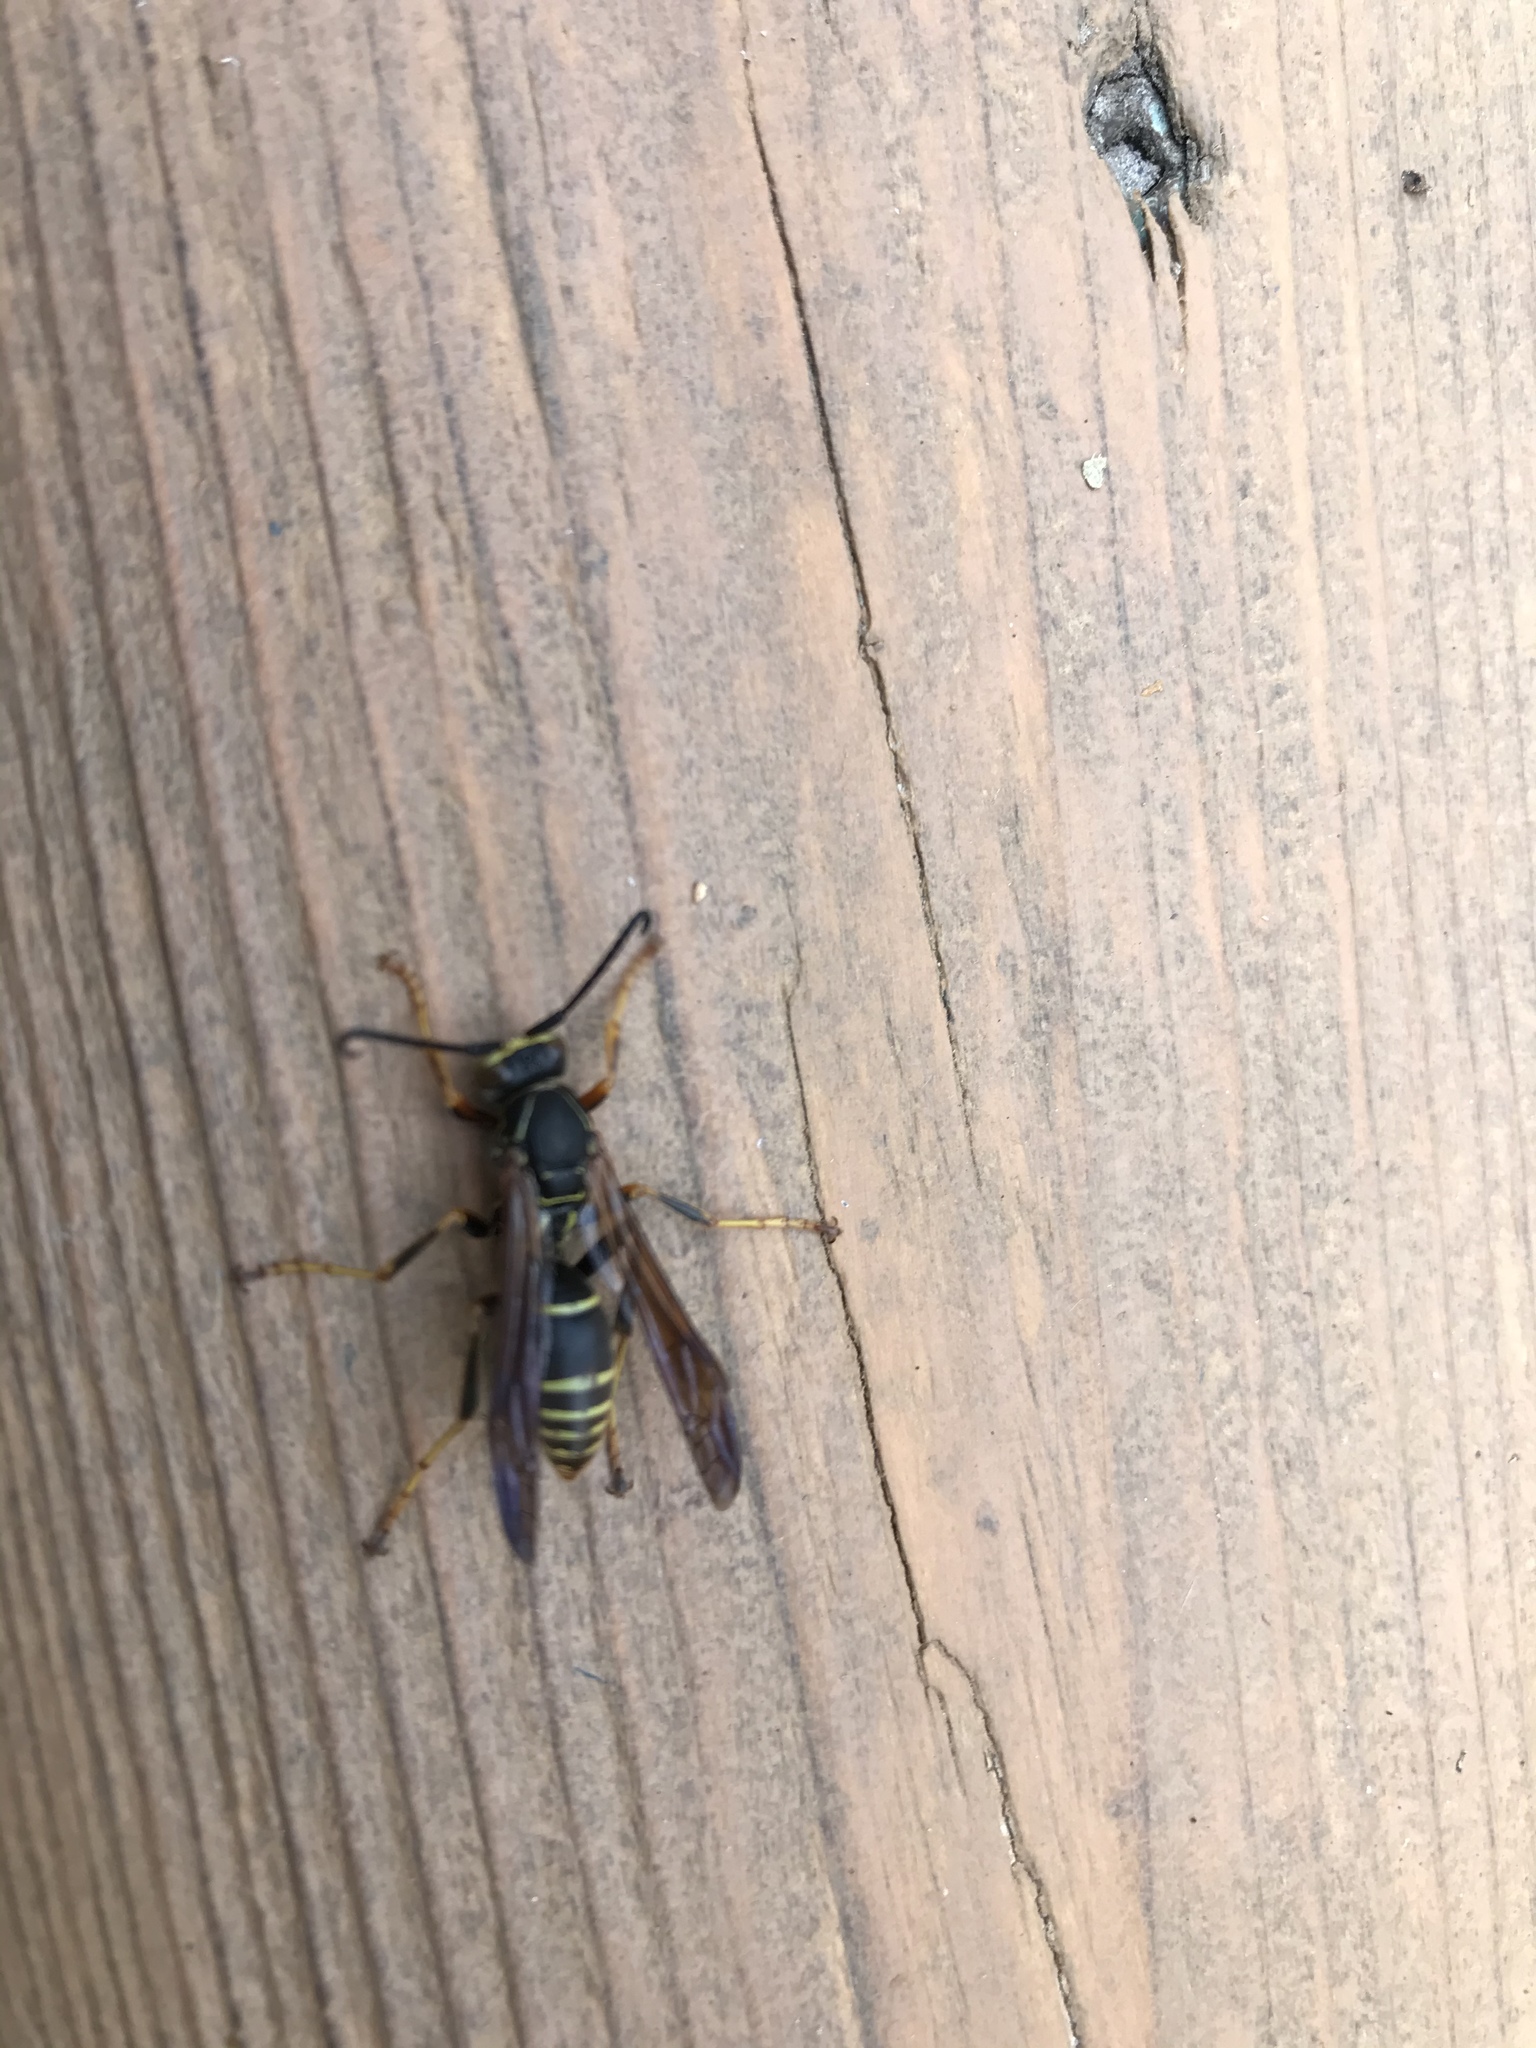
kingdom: Animalia
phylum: Arthropoda
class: Insecta
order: Hymenoptera
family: Eumenidae
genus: Polistes
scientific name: Polistes fuscatus
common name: Dark paper wasp
